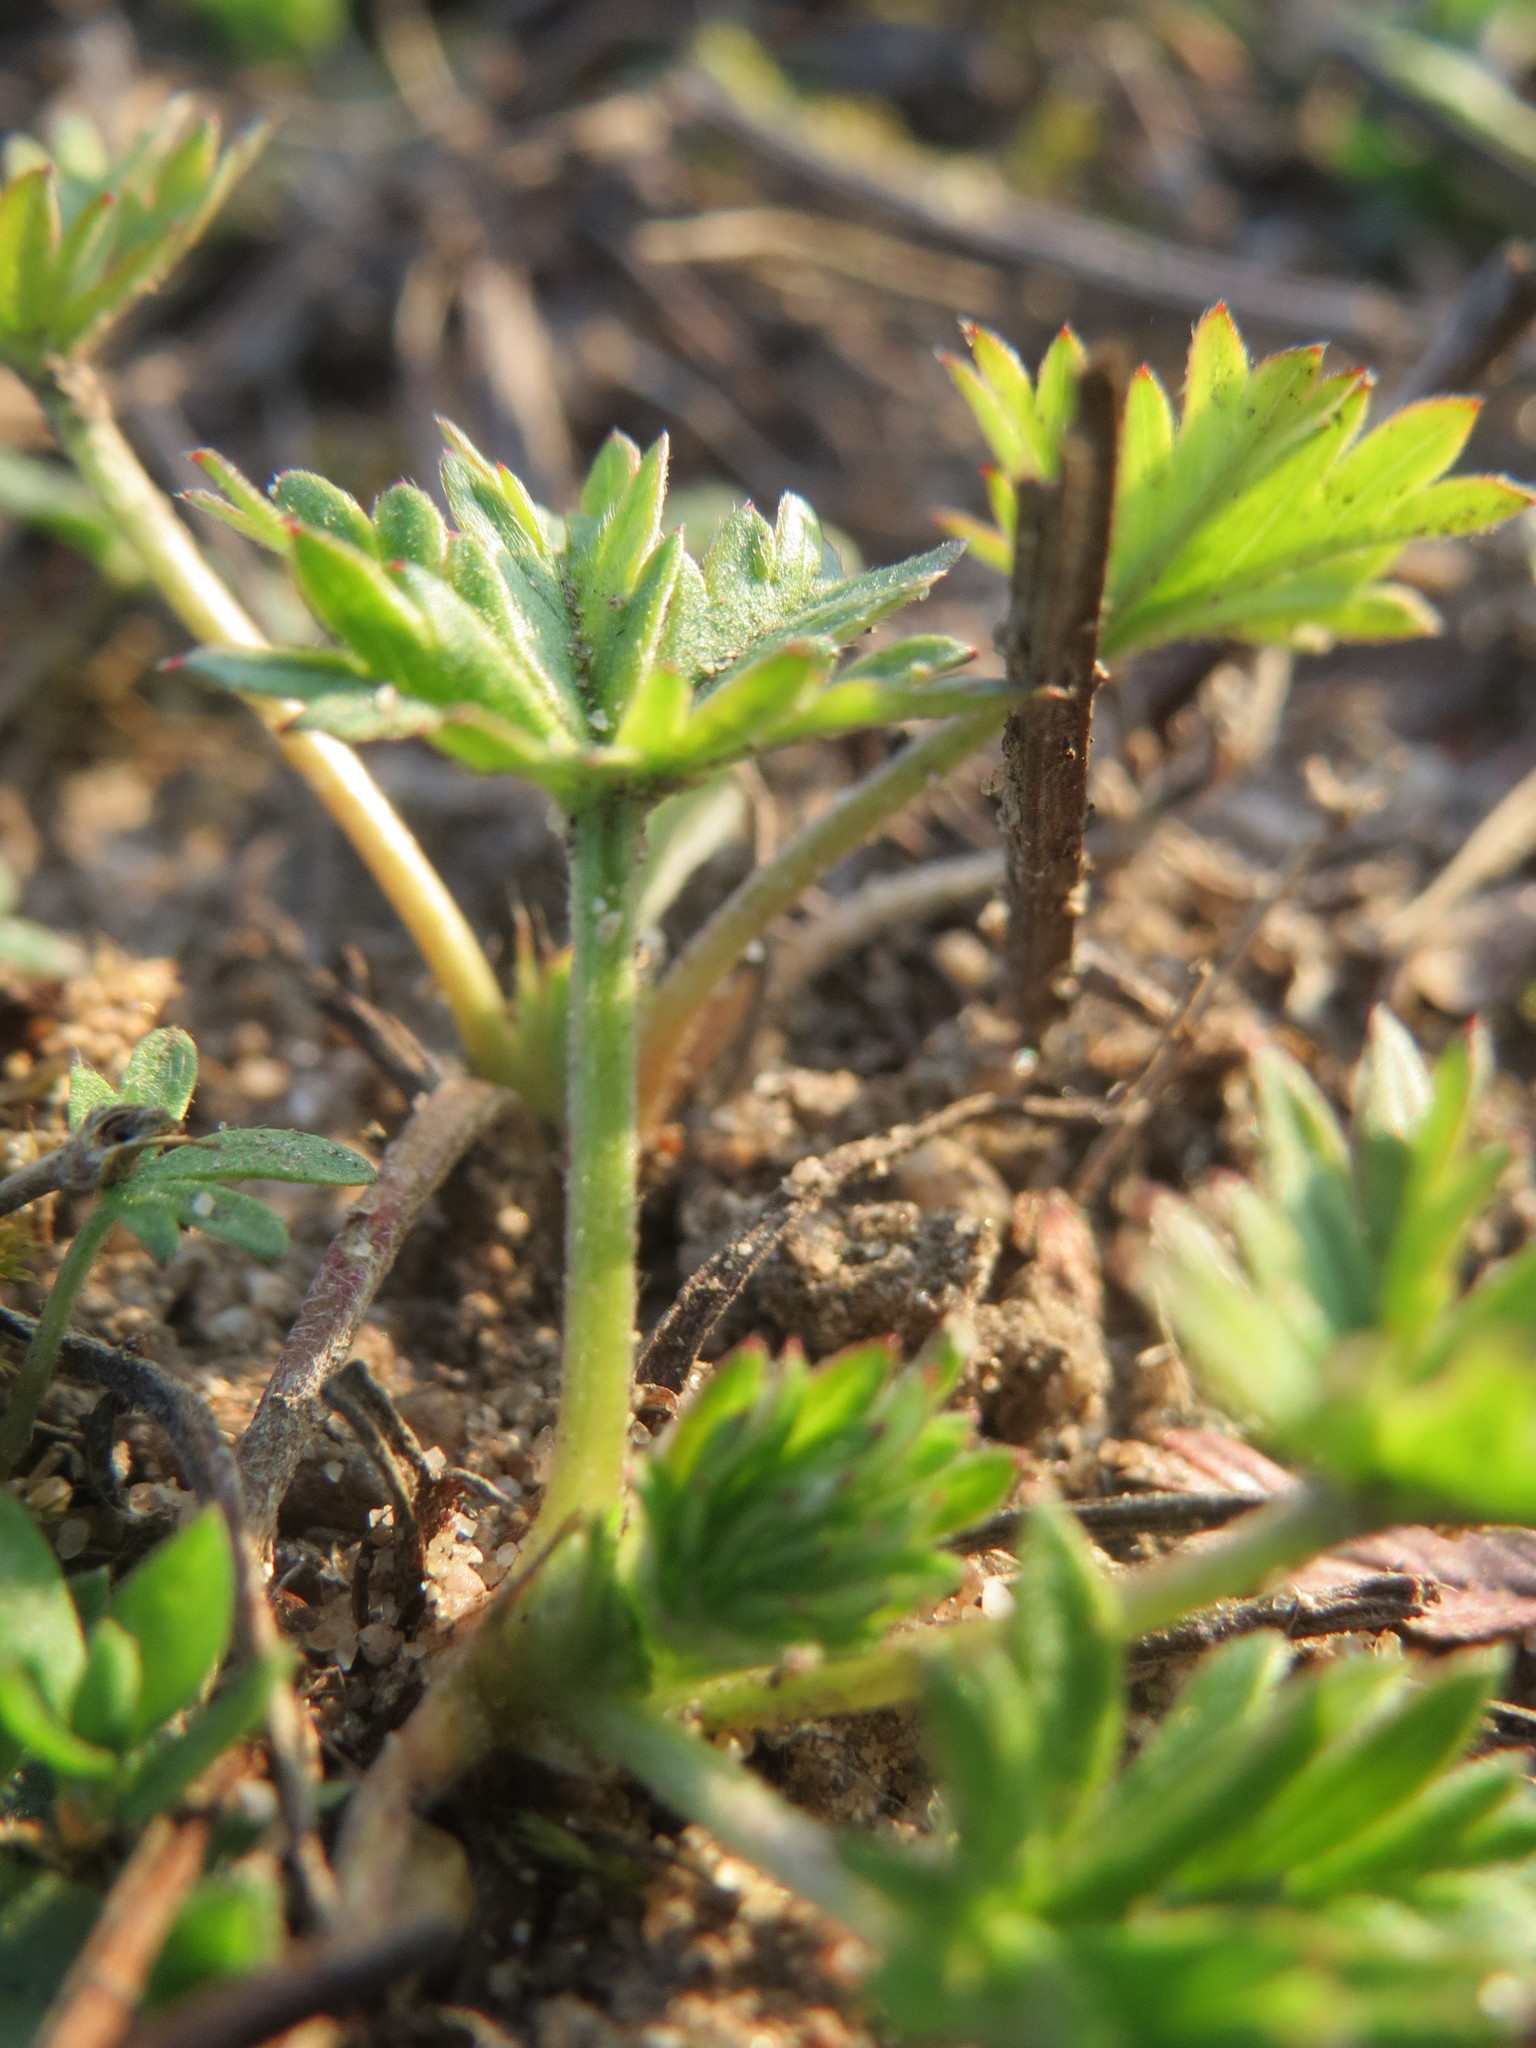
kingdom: Plantae
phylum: Tracheophyta
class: Magnoliopsida
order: Rosales
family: Rosaceae
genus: Potentilla
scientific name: Potentilla argentea
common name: Hoary cinquefoil
